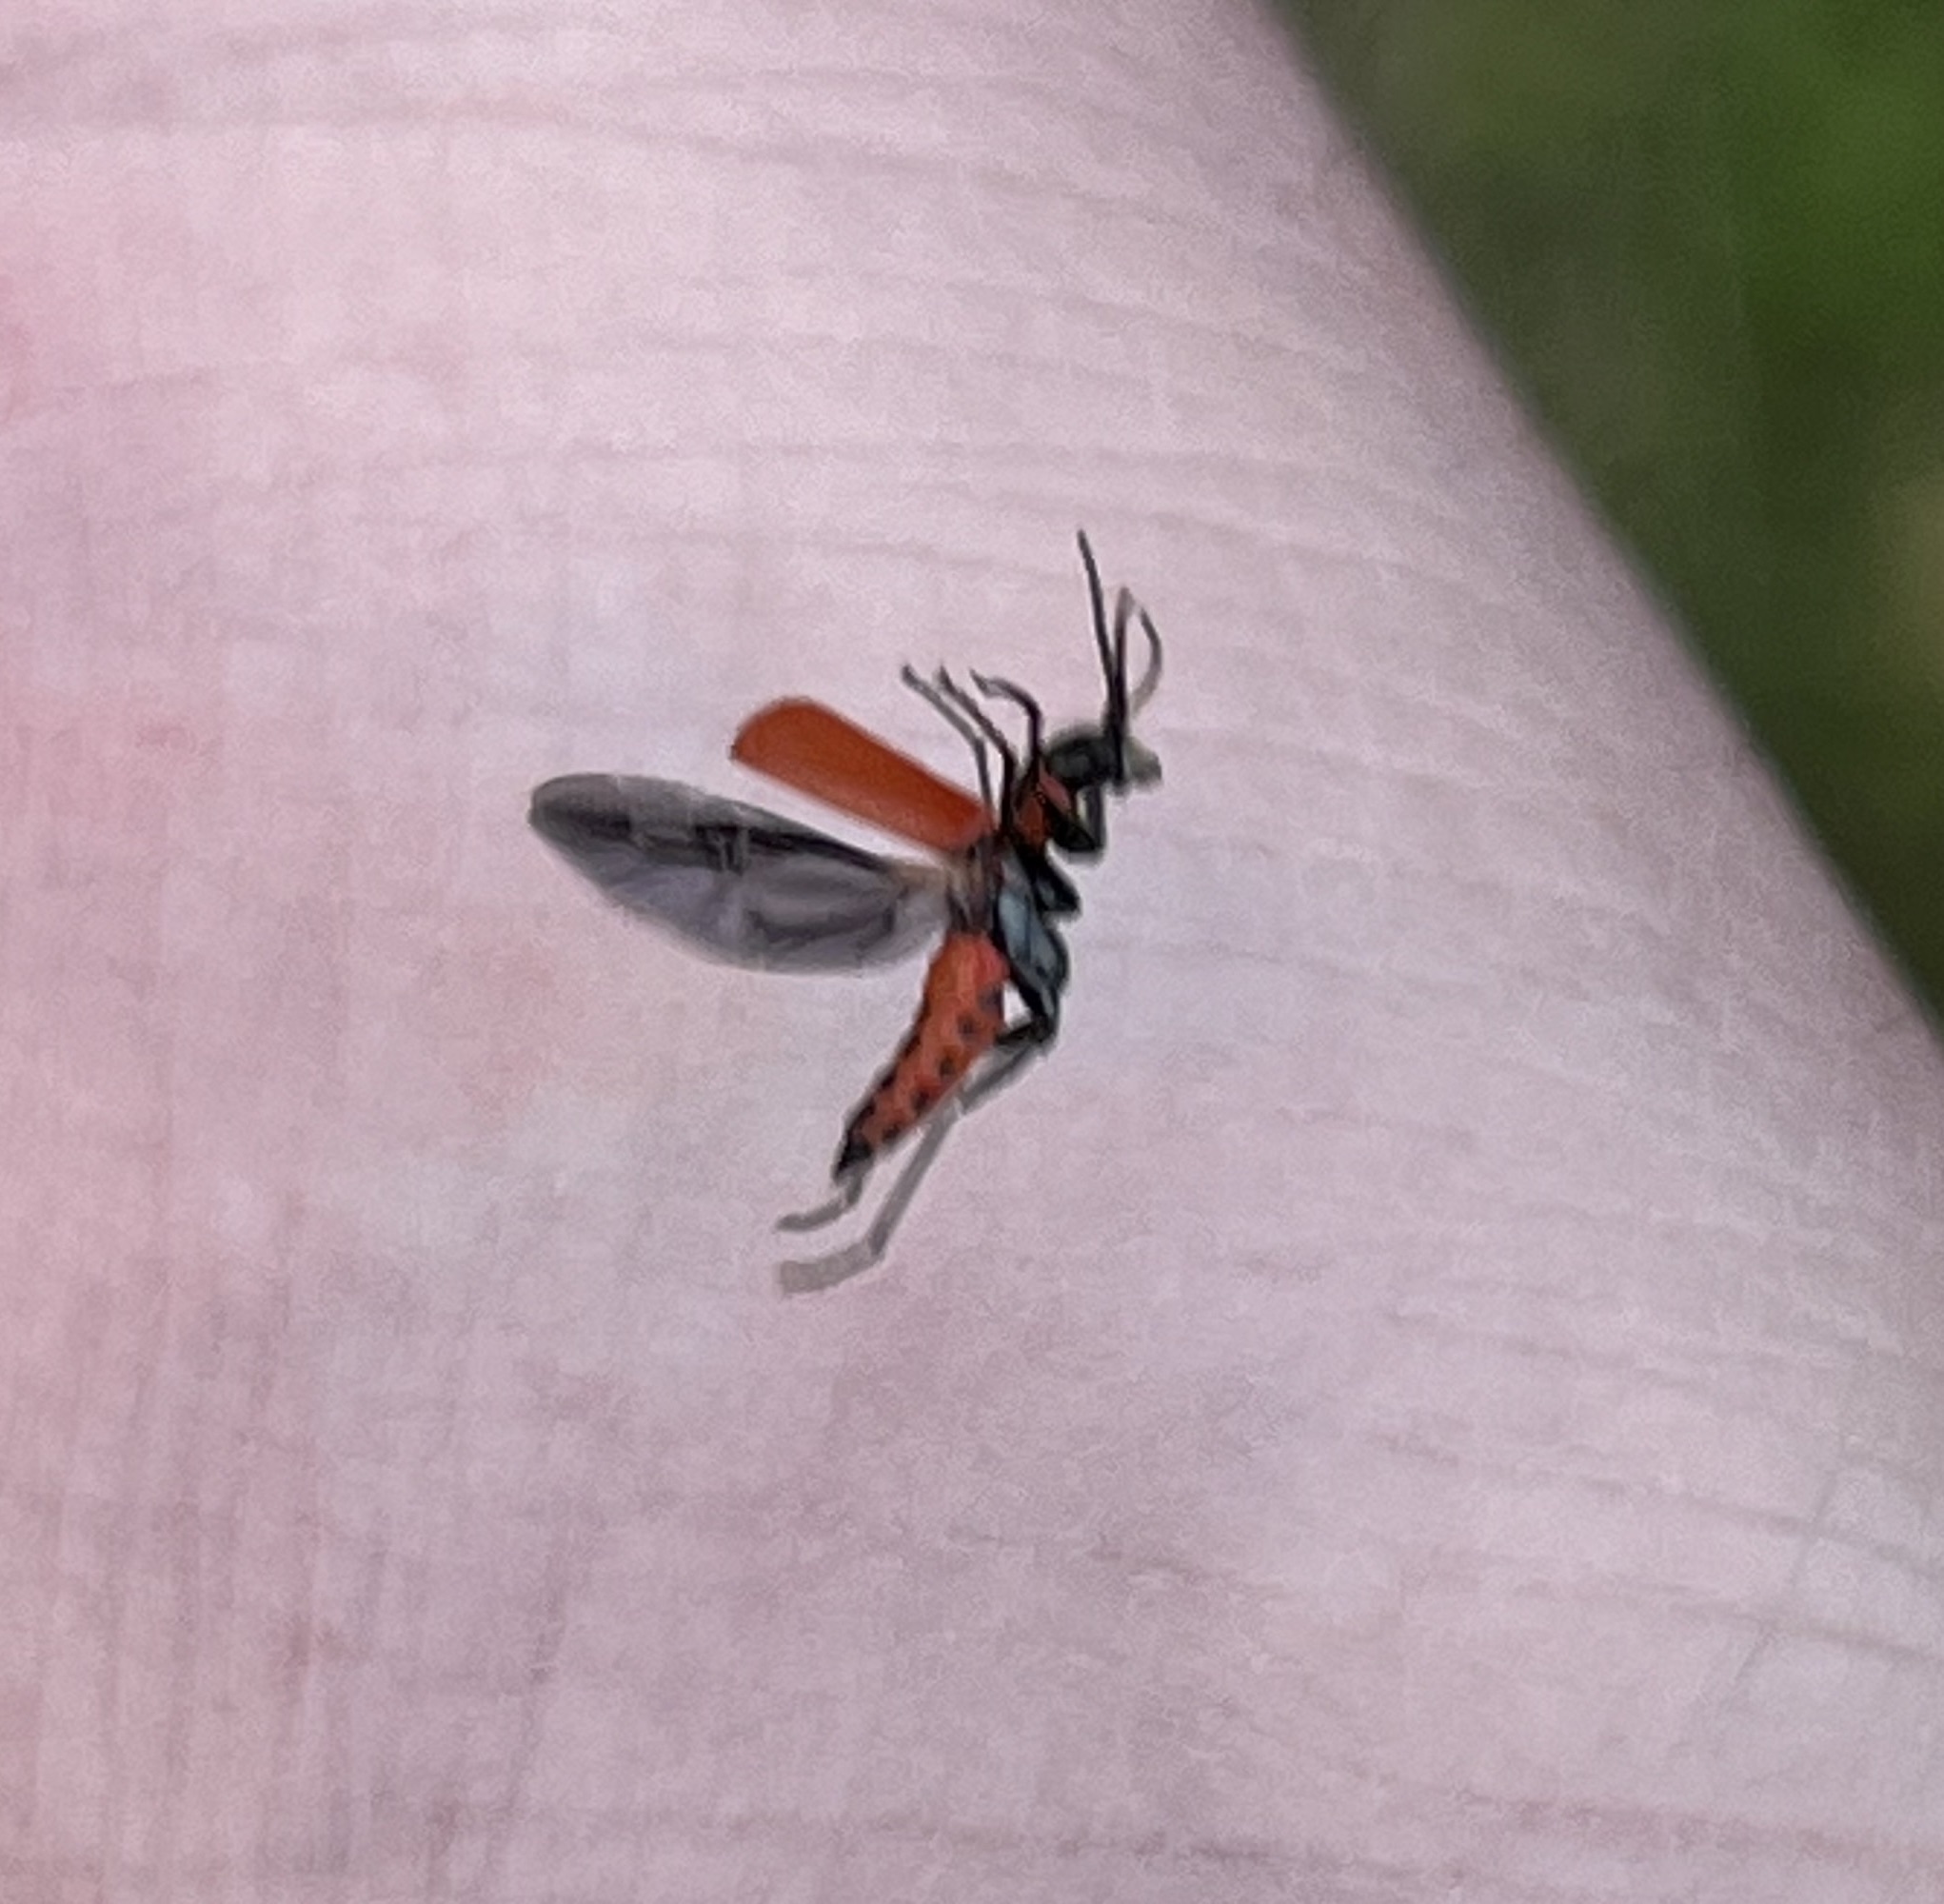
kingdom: Animalia
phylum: Arthropoda
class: Insecta
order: Coleoptera
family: Melyridae
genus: Malachius
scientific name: Malachius coccineus
